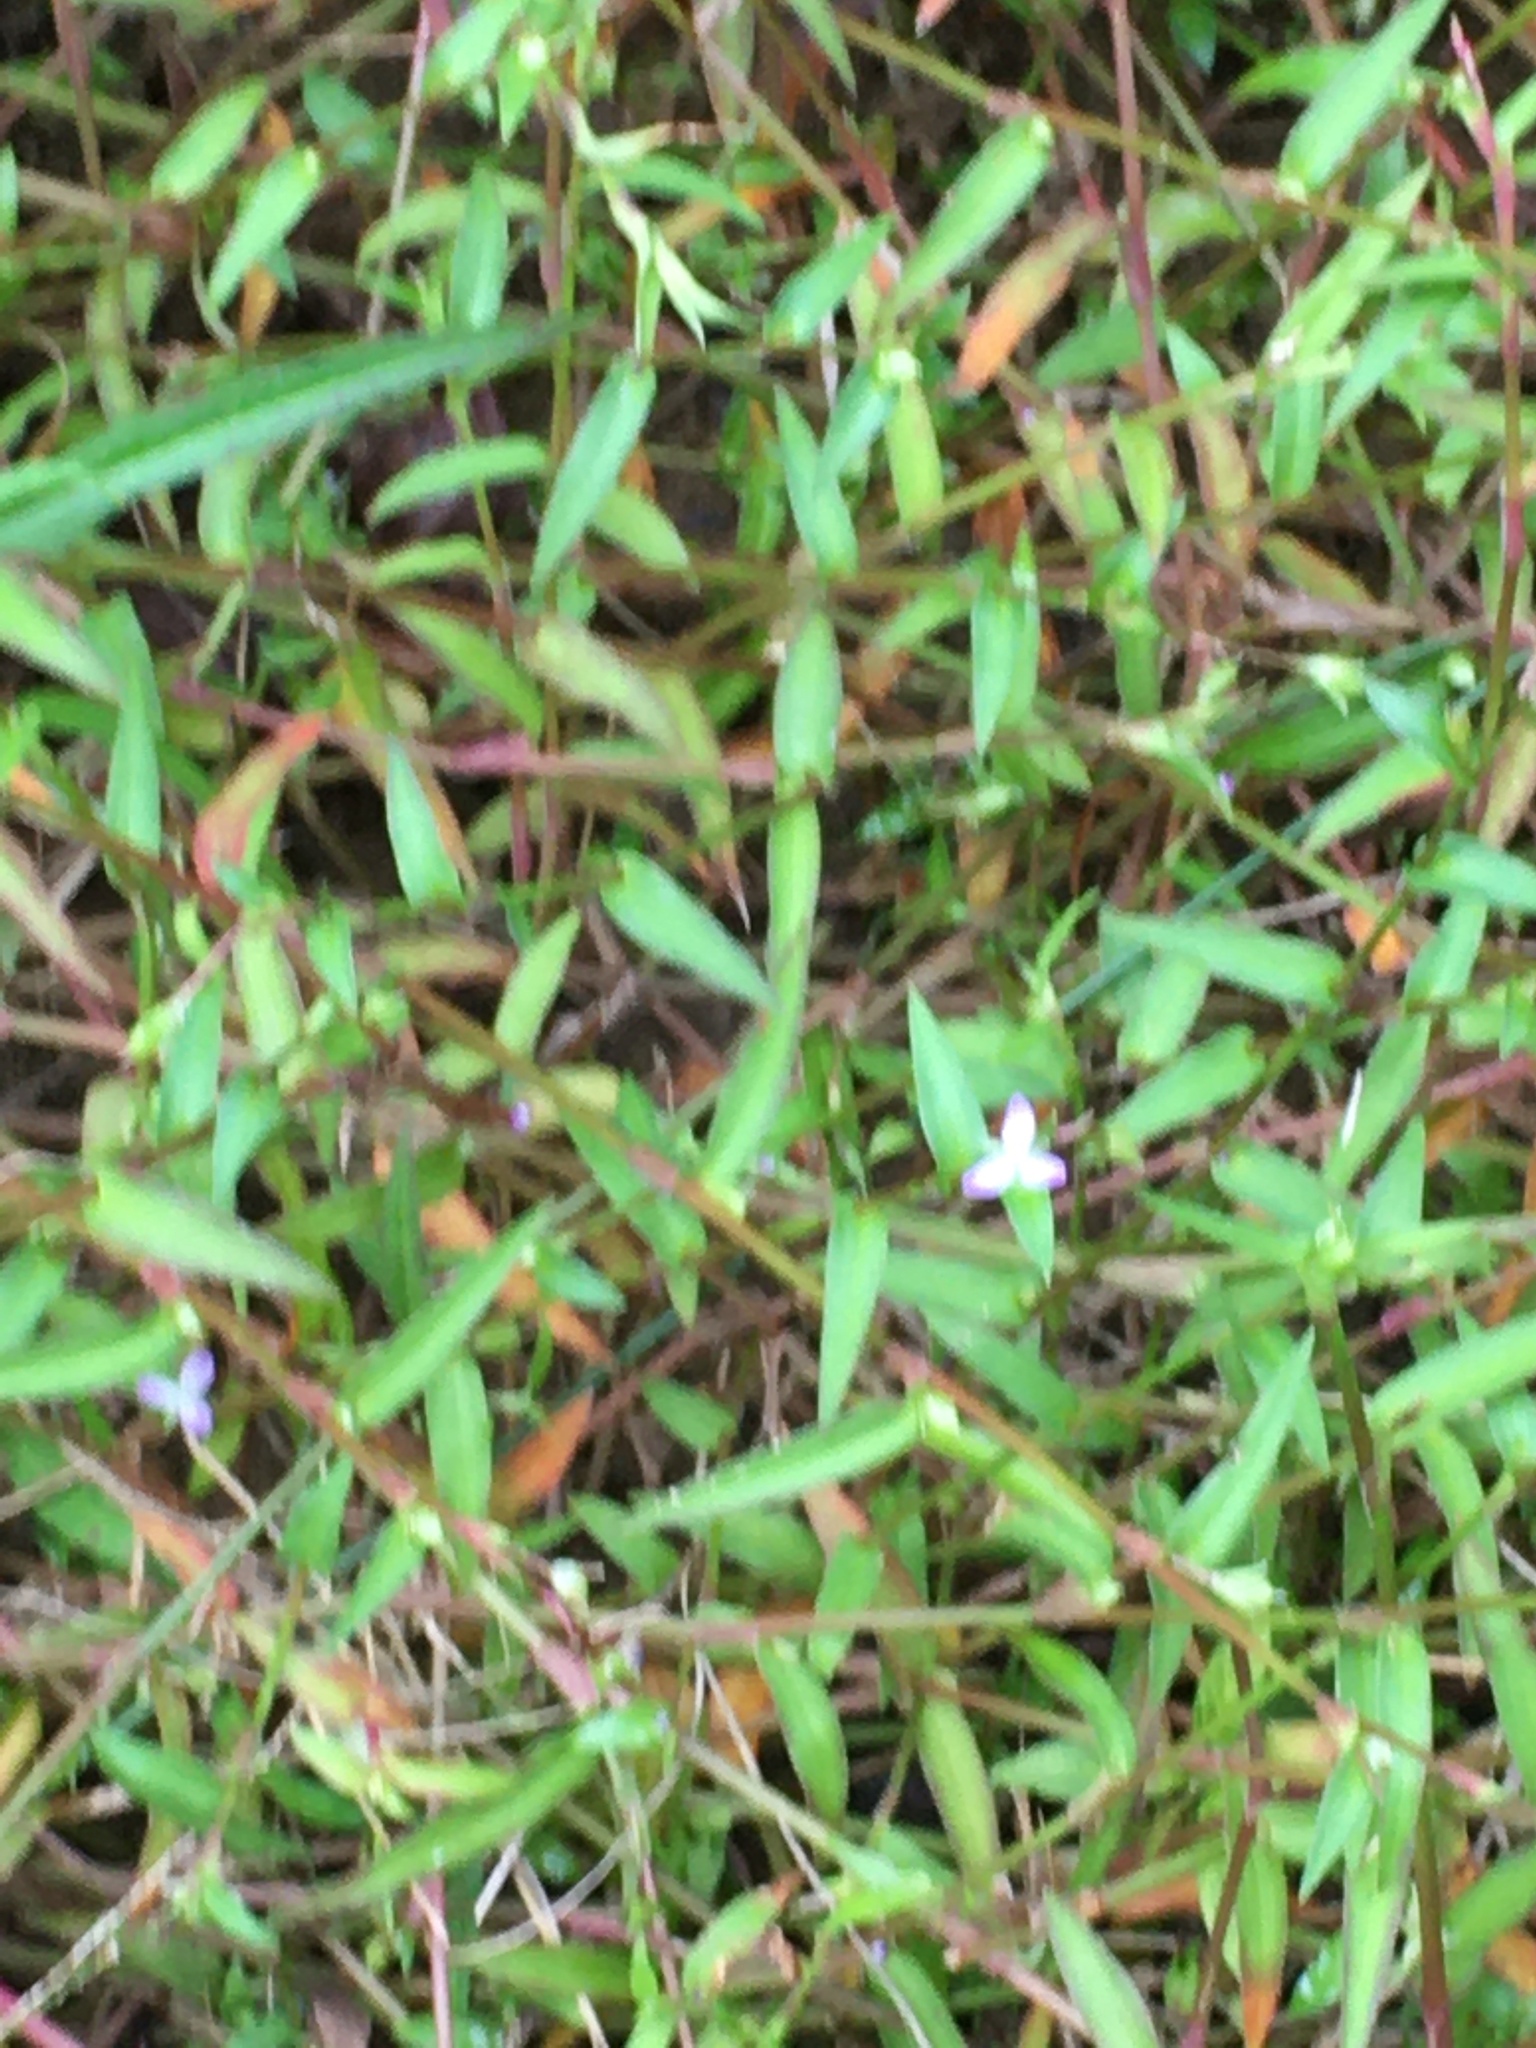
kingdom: Plantae
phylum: Tracheophyta
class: Liliopsida
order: Commelinales
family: Commelinaceae
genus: Murdannia
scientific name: Murdannia keisak
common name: Wartremoving herb
